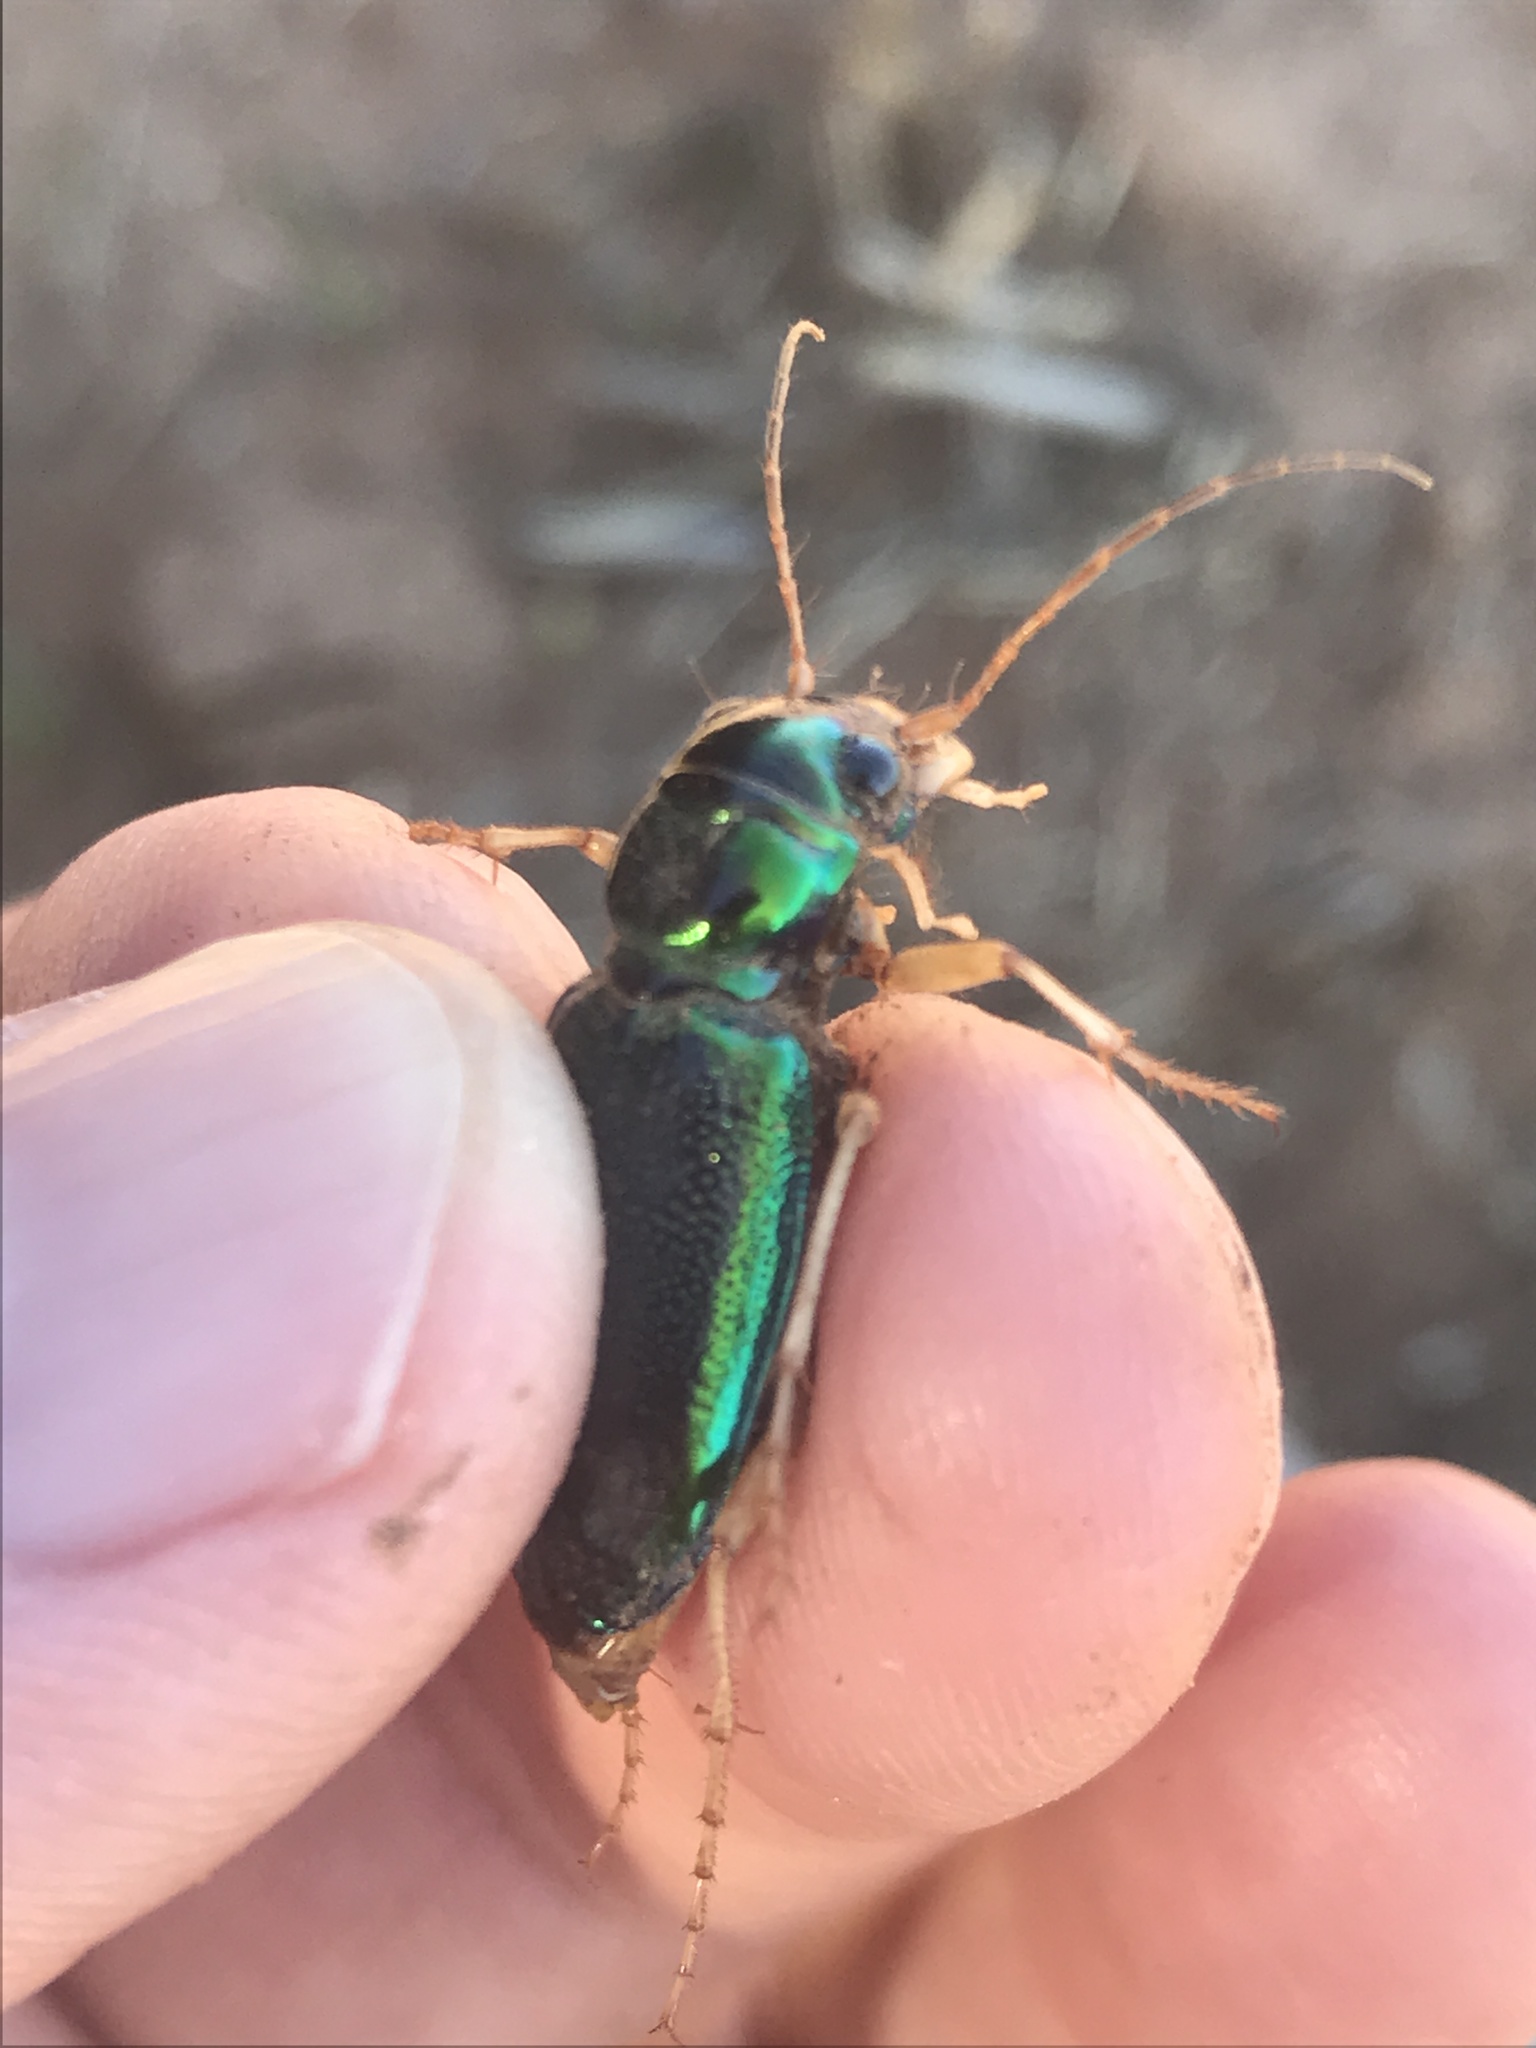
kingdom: Animalia
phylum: Arthropoda
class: Insecta
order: Coleoptera
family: Carabidae
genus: Tetracha
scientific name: Tetracha virginica
